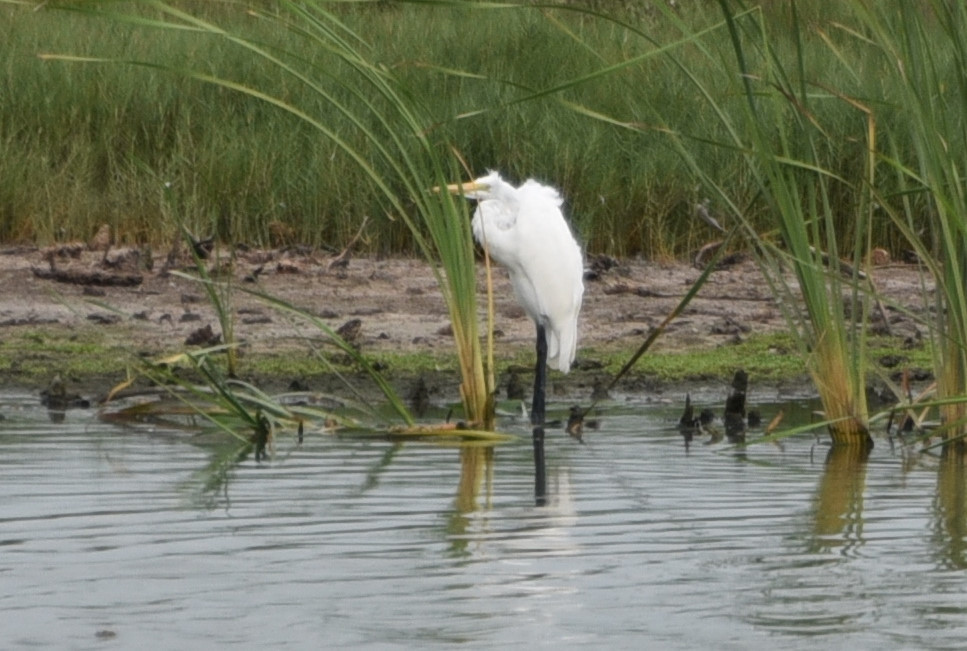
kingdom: Animalia
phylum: Chordata
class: Aves
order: Pelecaniformes
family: Ardeidae
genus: Ardea
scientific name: Ardea alba
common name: Great egret
